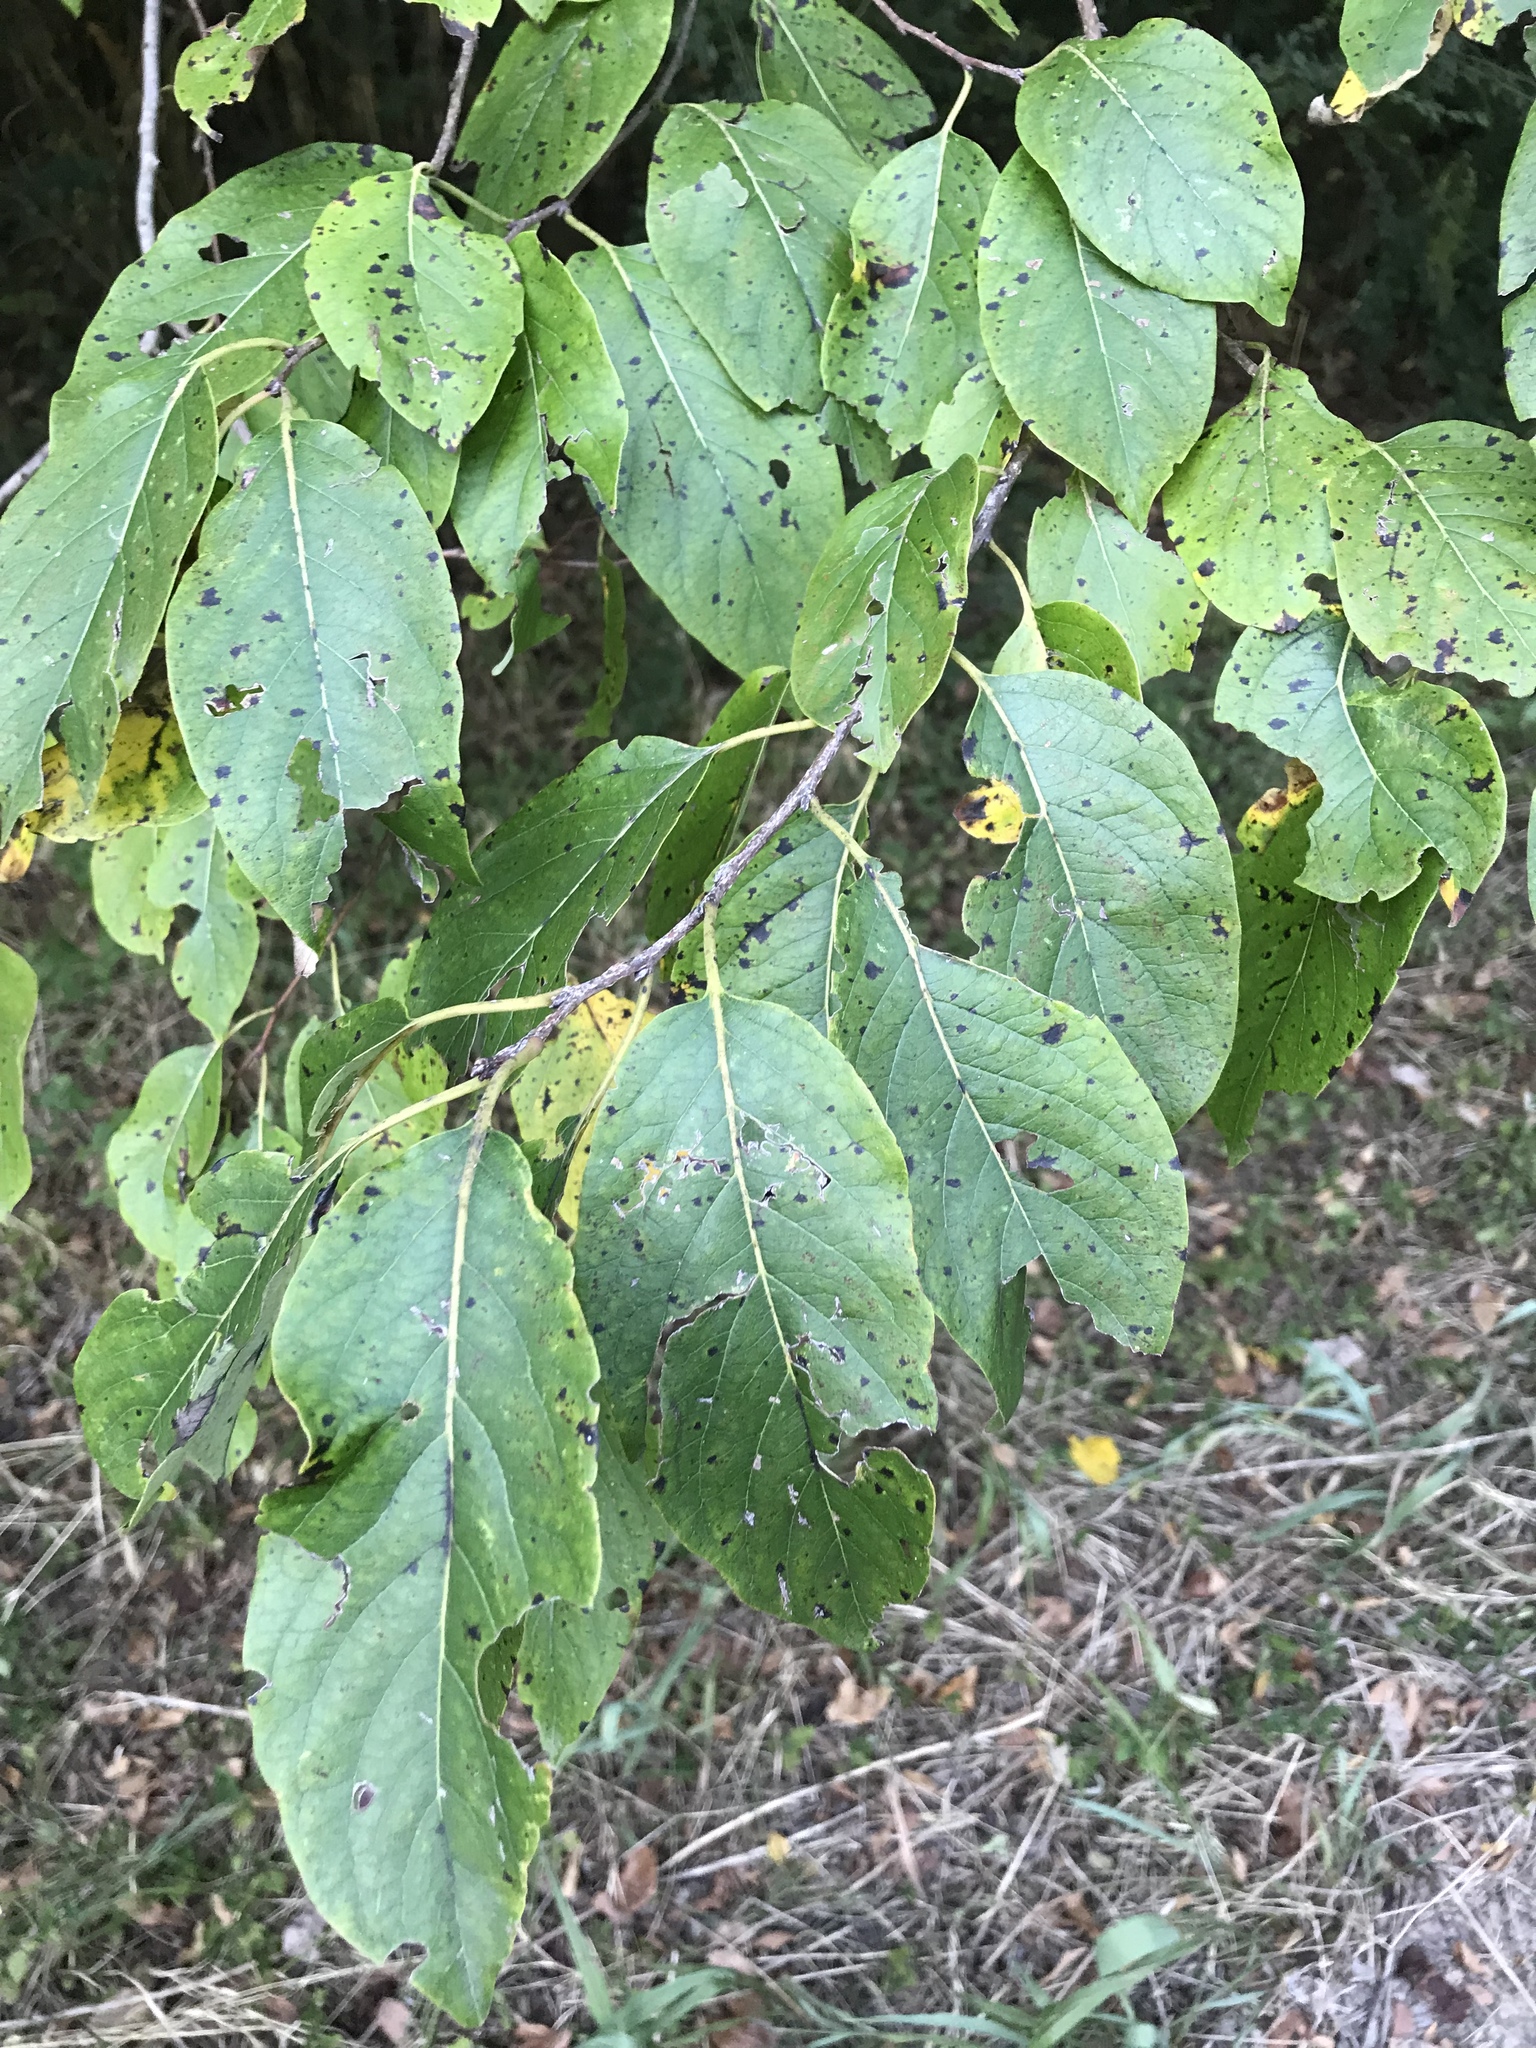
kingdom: Plantae
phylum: Tracheophyta
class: Magnoliopsida
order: Ericales
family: Ebenaceae
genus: Diospyros
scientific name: Diospyros virginiana
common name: Persimmon
